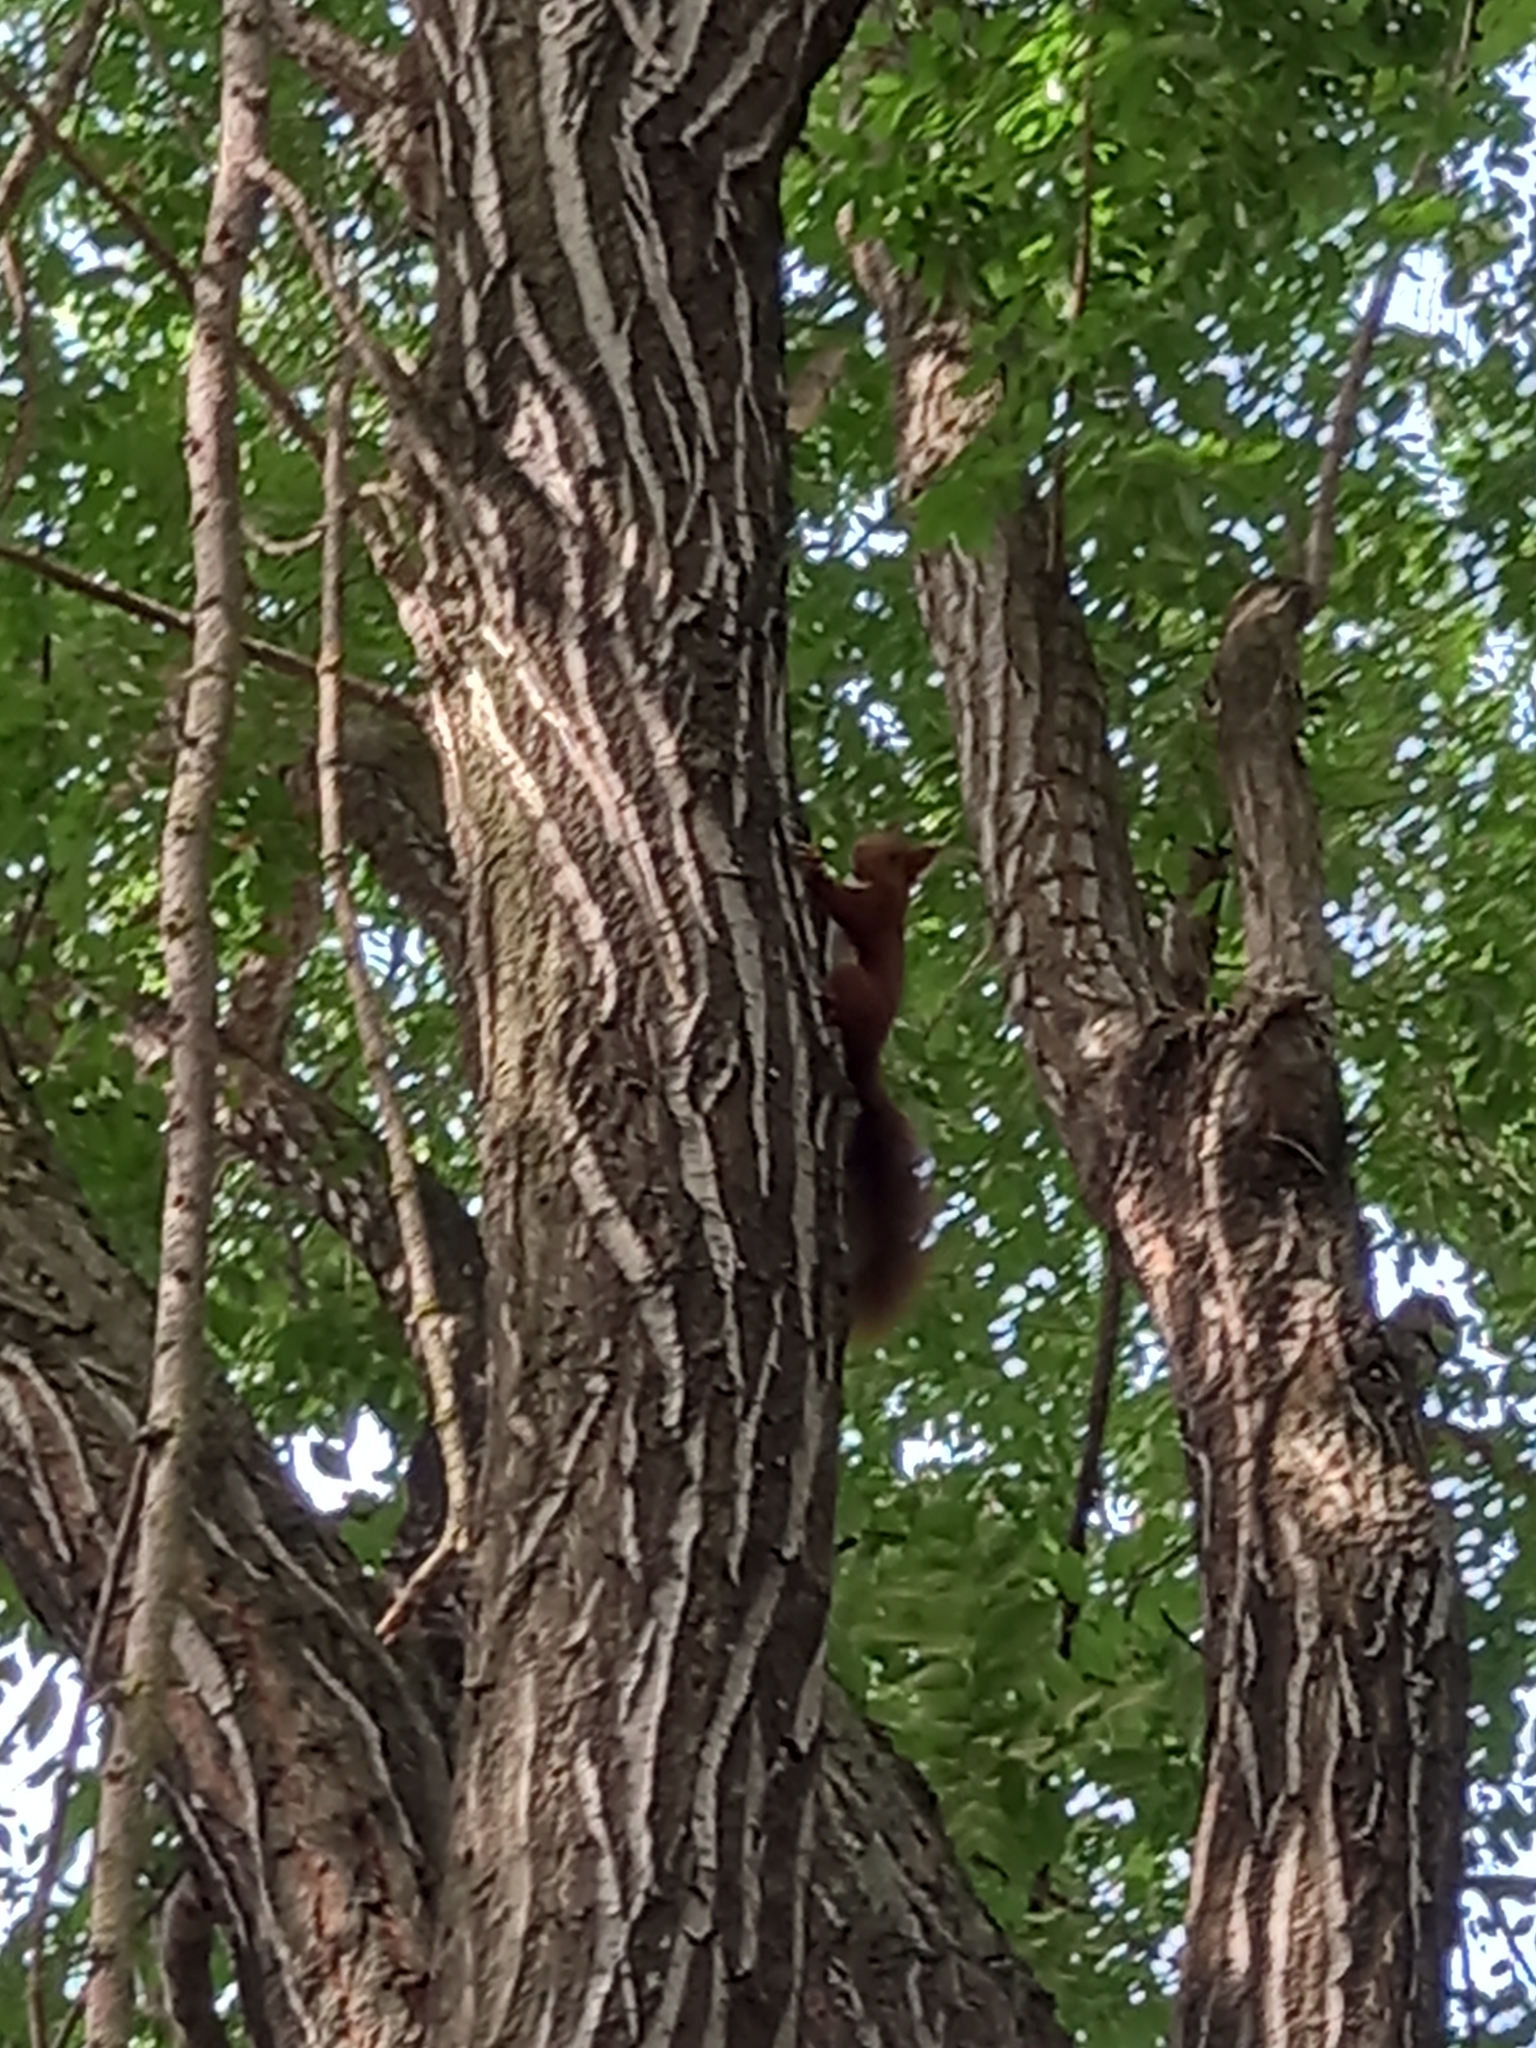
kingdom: Animalia
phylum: Chordata
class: Mammalia
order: Rodentia
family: Sciuridae
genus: Sciurus
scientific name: Sciurus vulgaris
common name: Eurasian red squirrel
